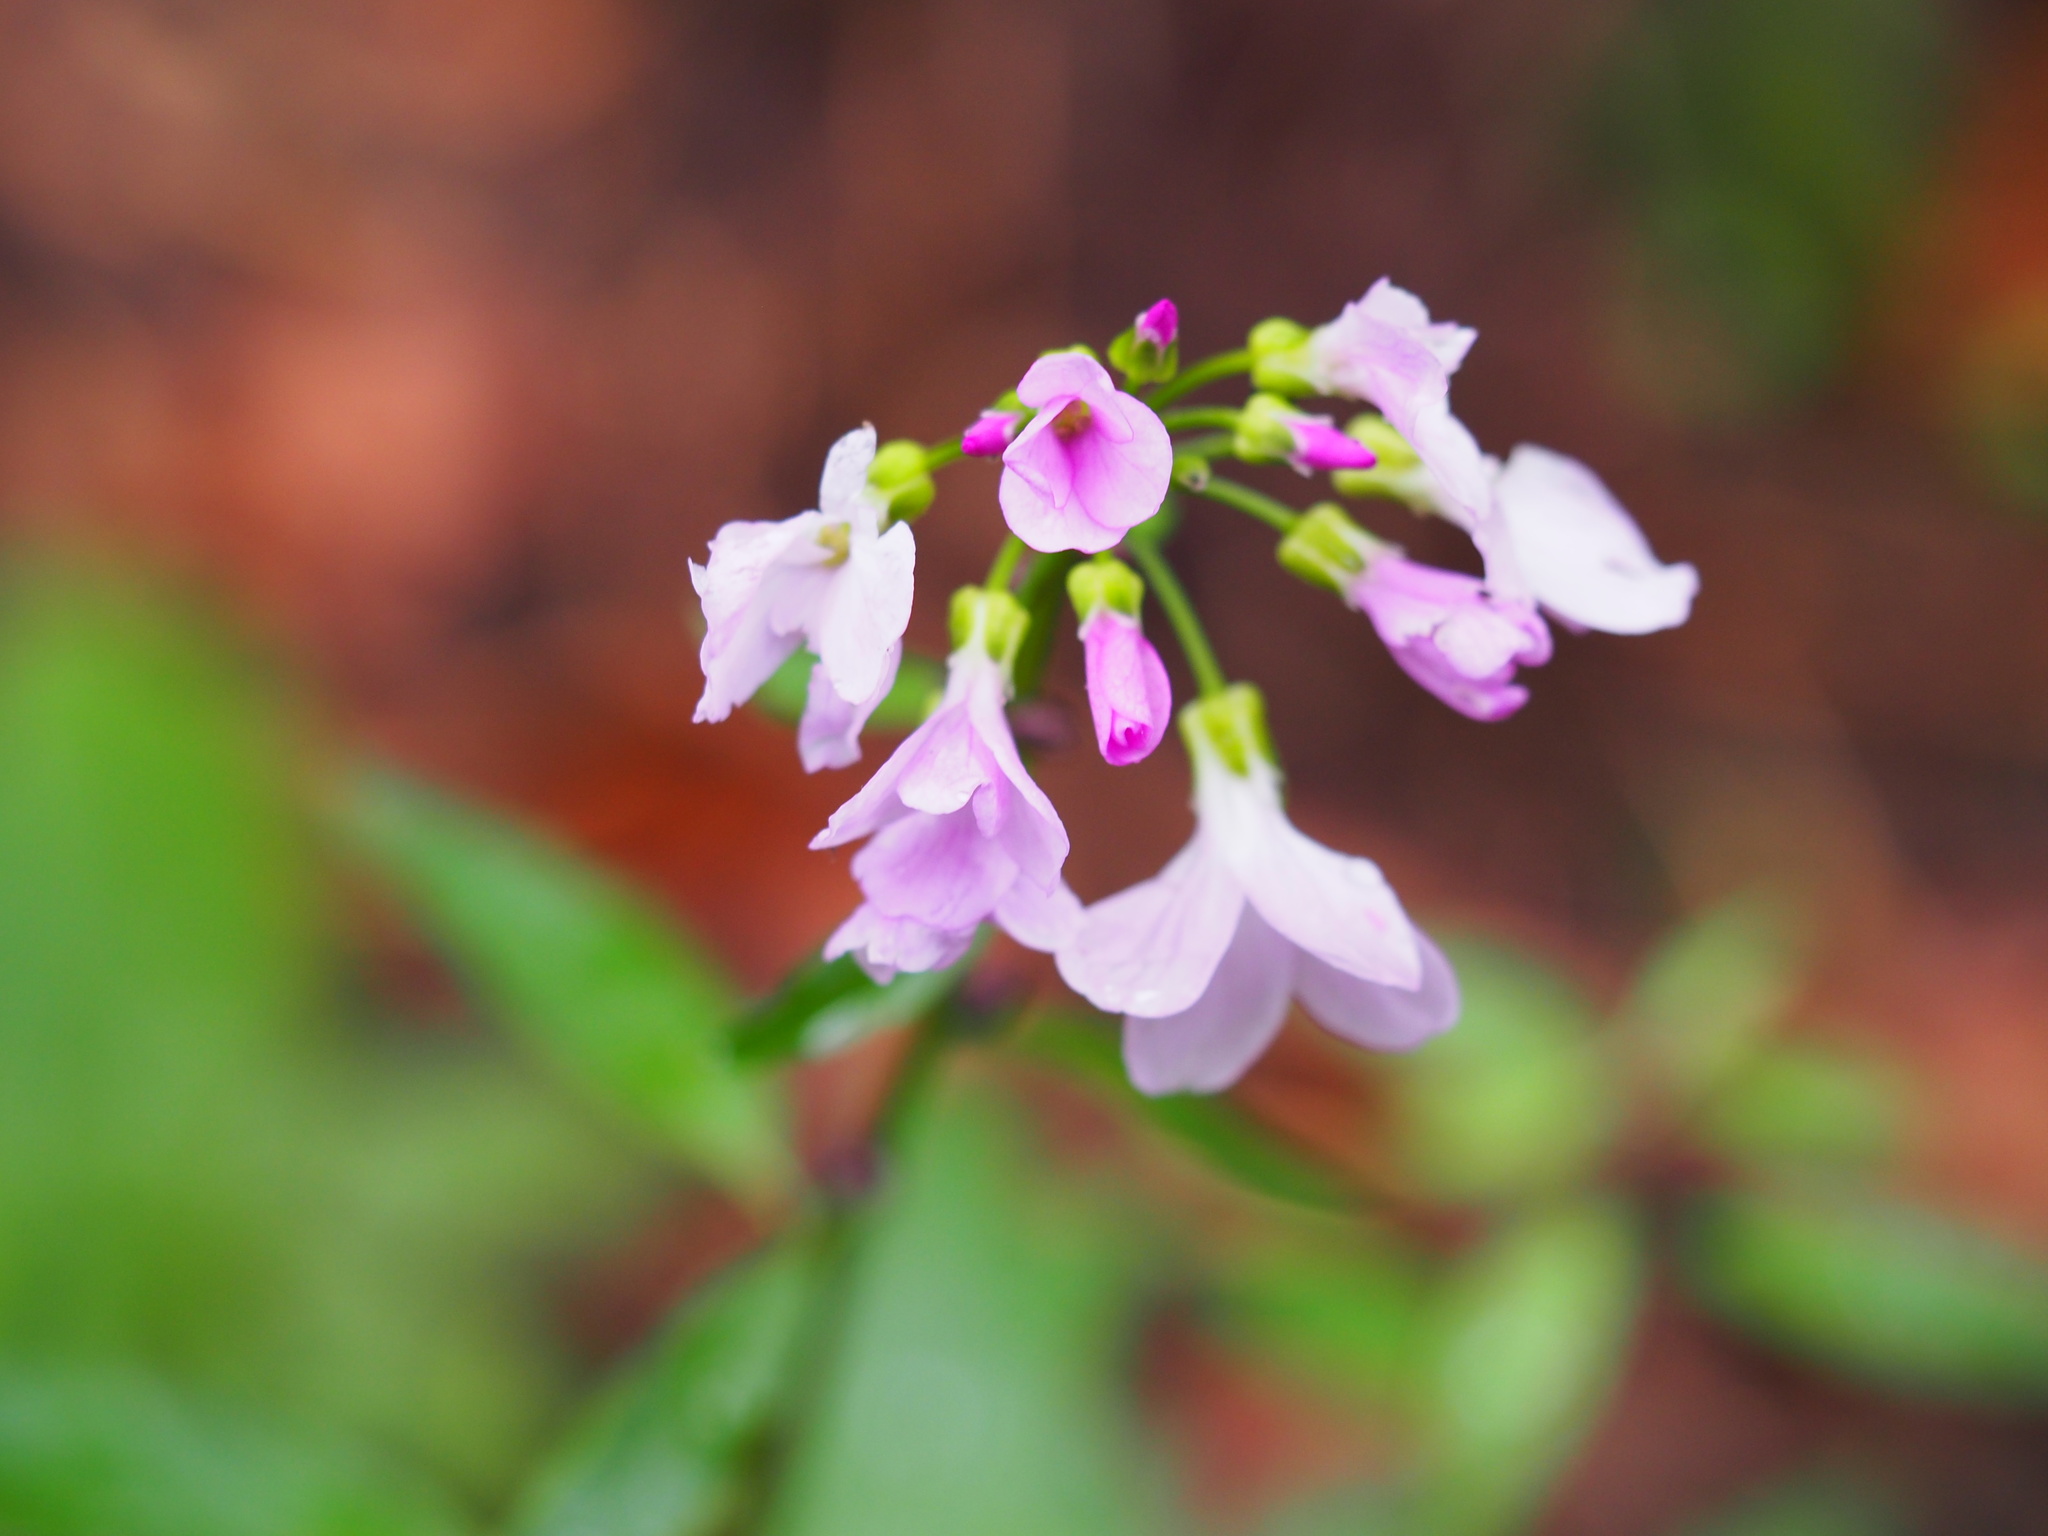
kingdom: Plantae
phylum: Tracheophyta
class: Magnoliopsida
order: Brassicales
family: Brassicaceae
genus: Cardamine
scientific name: Cardamine bulbifera
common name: Coralroot bittercress
